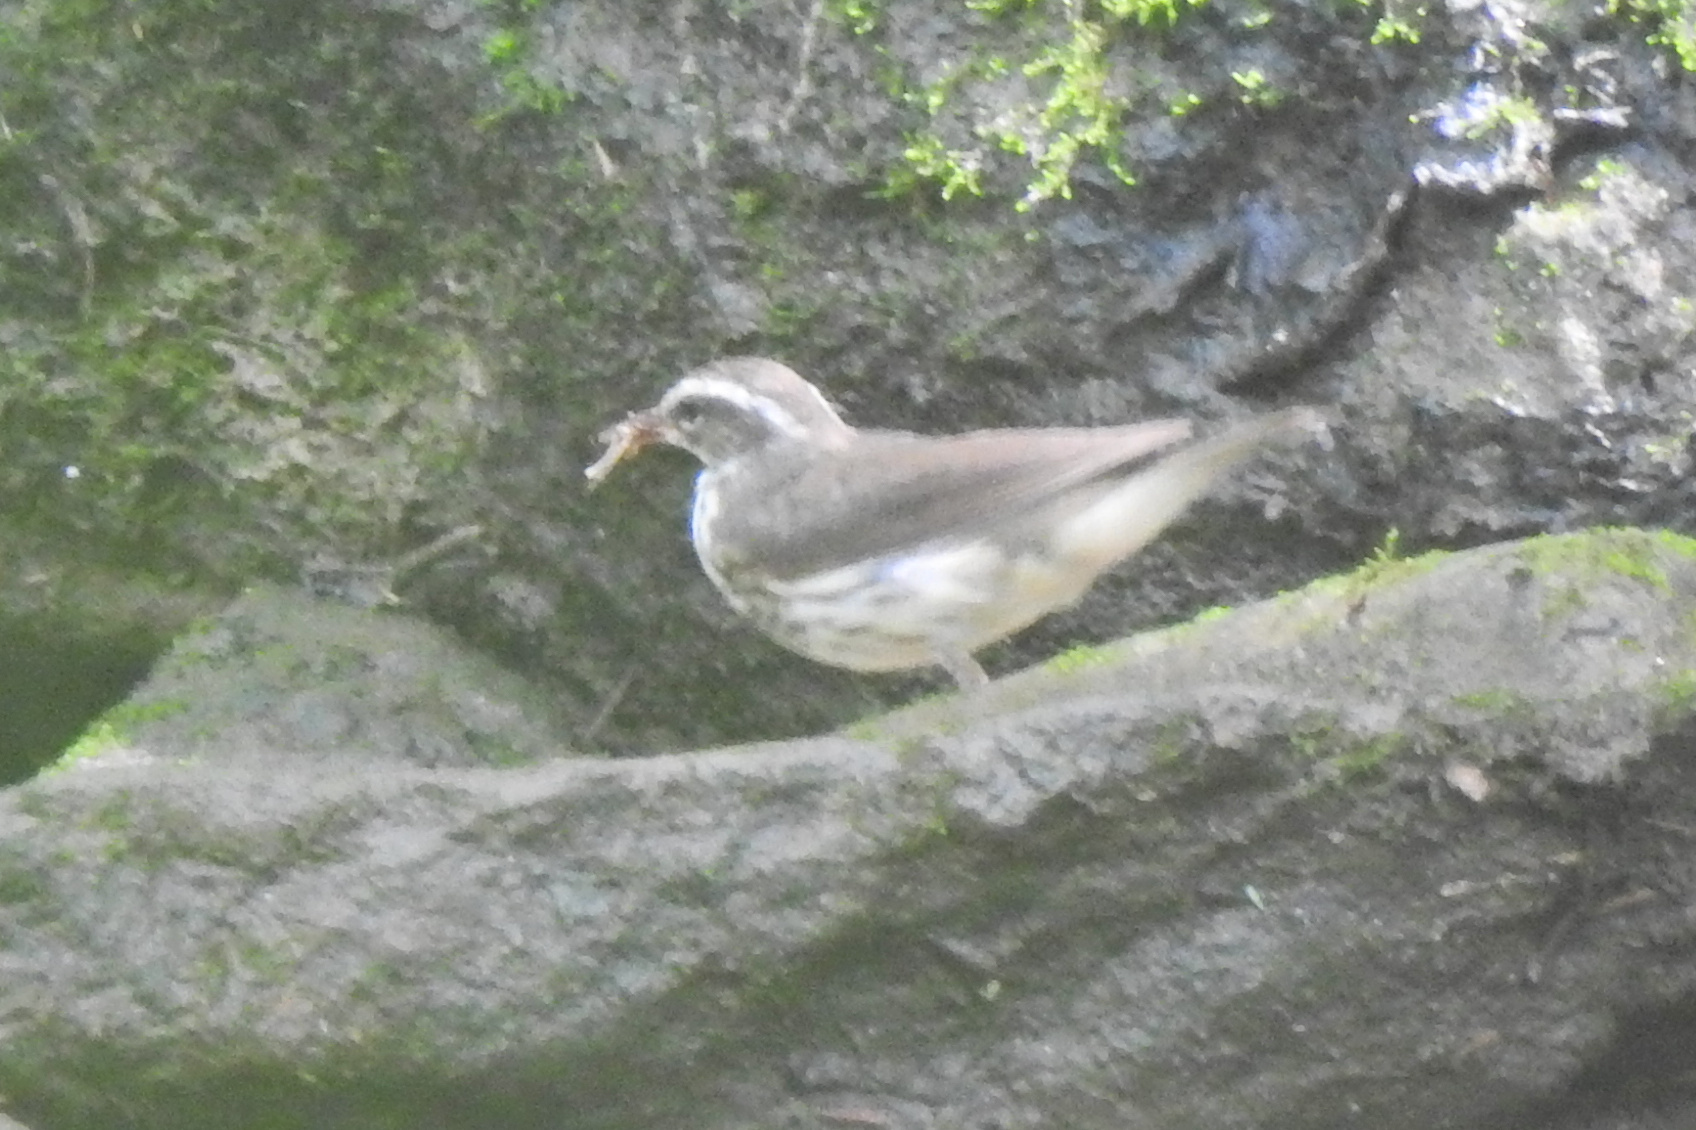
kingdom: Animalia
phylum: Chordata
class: Aves
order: Passeriformes
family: Parulidae
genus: Parkesia
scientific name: Parkesia motacilla
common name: Louisiana waterthrush
